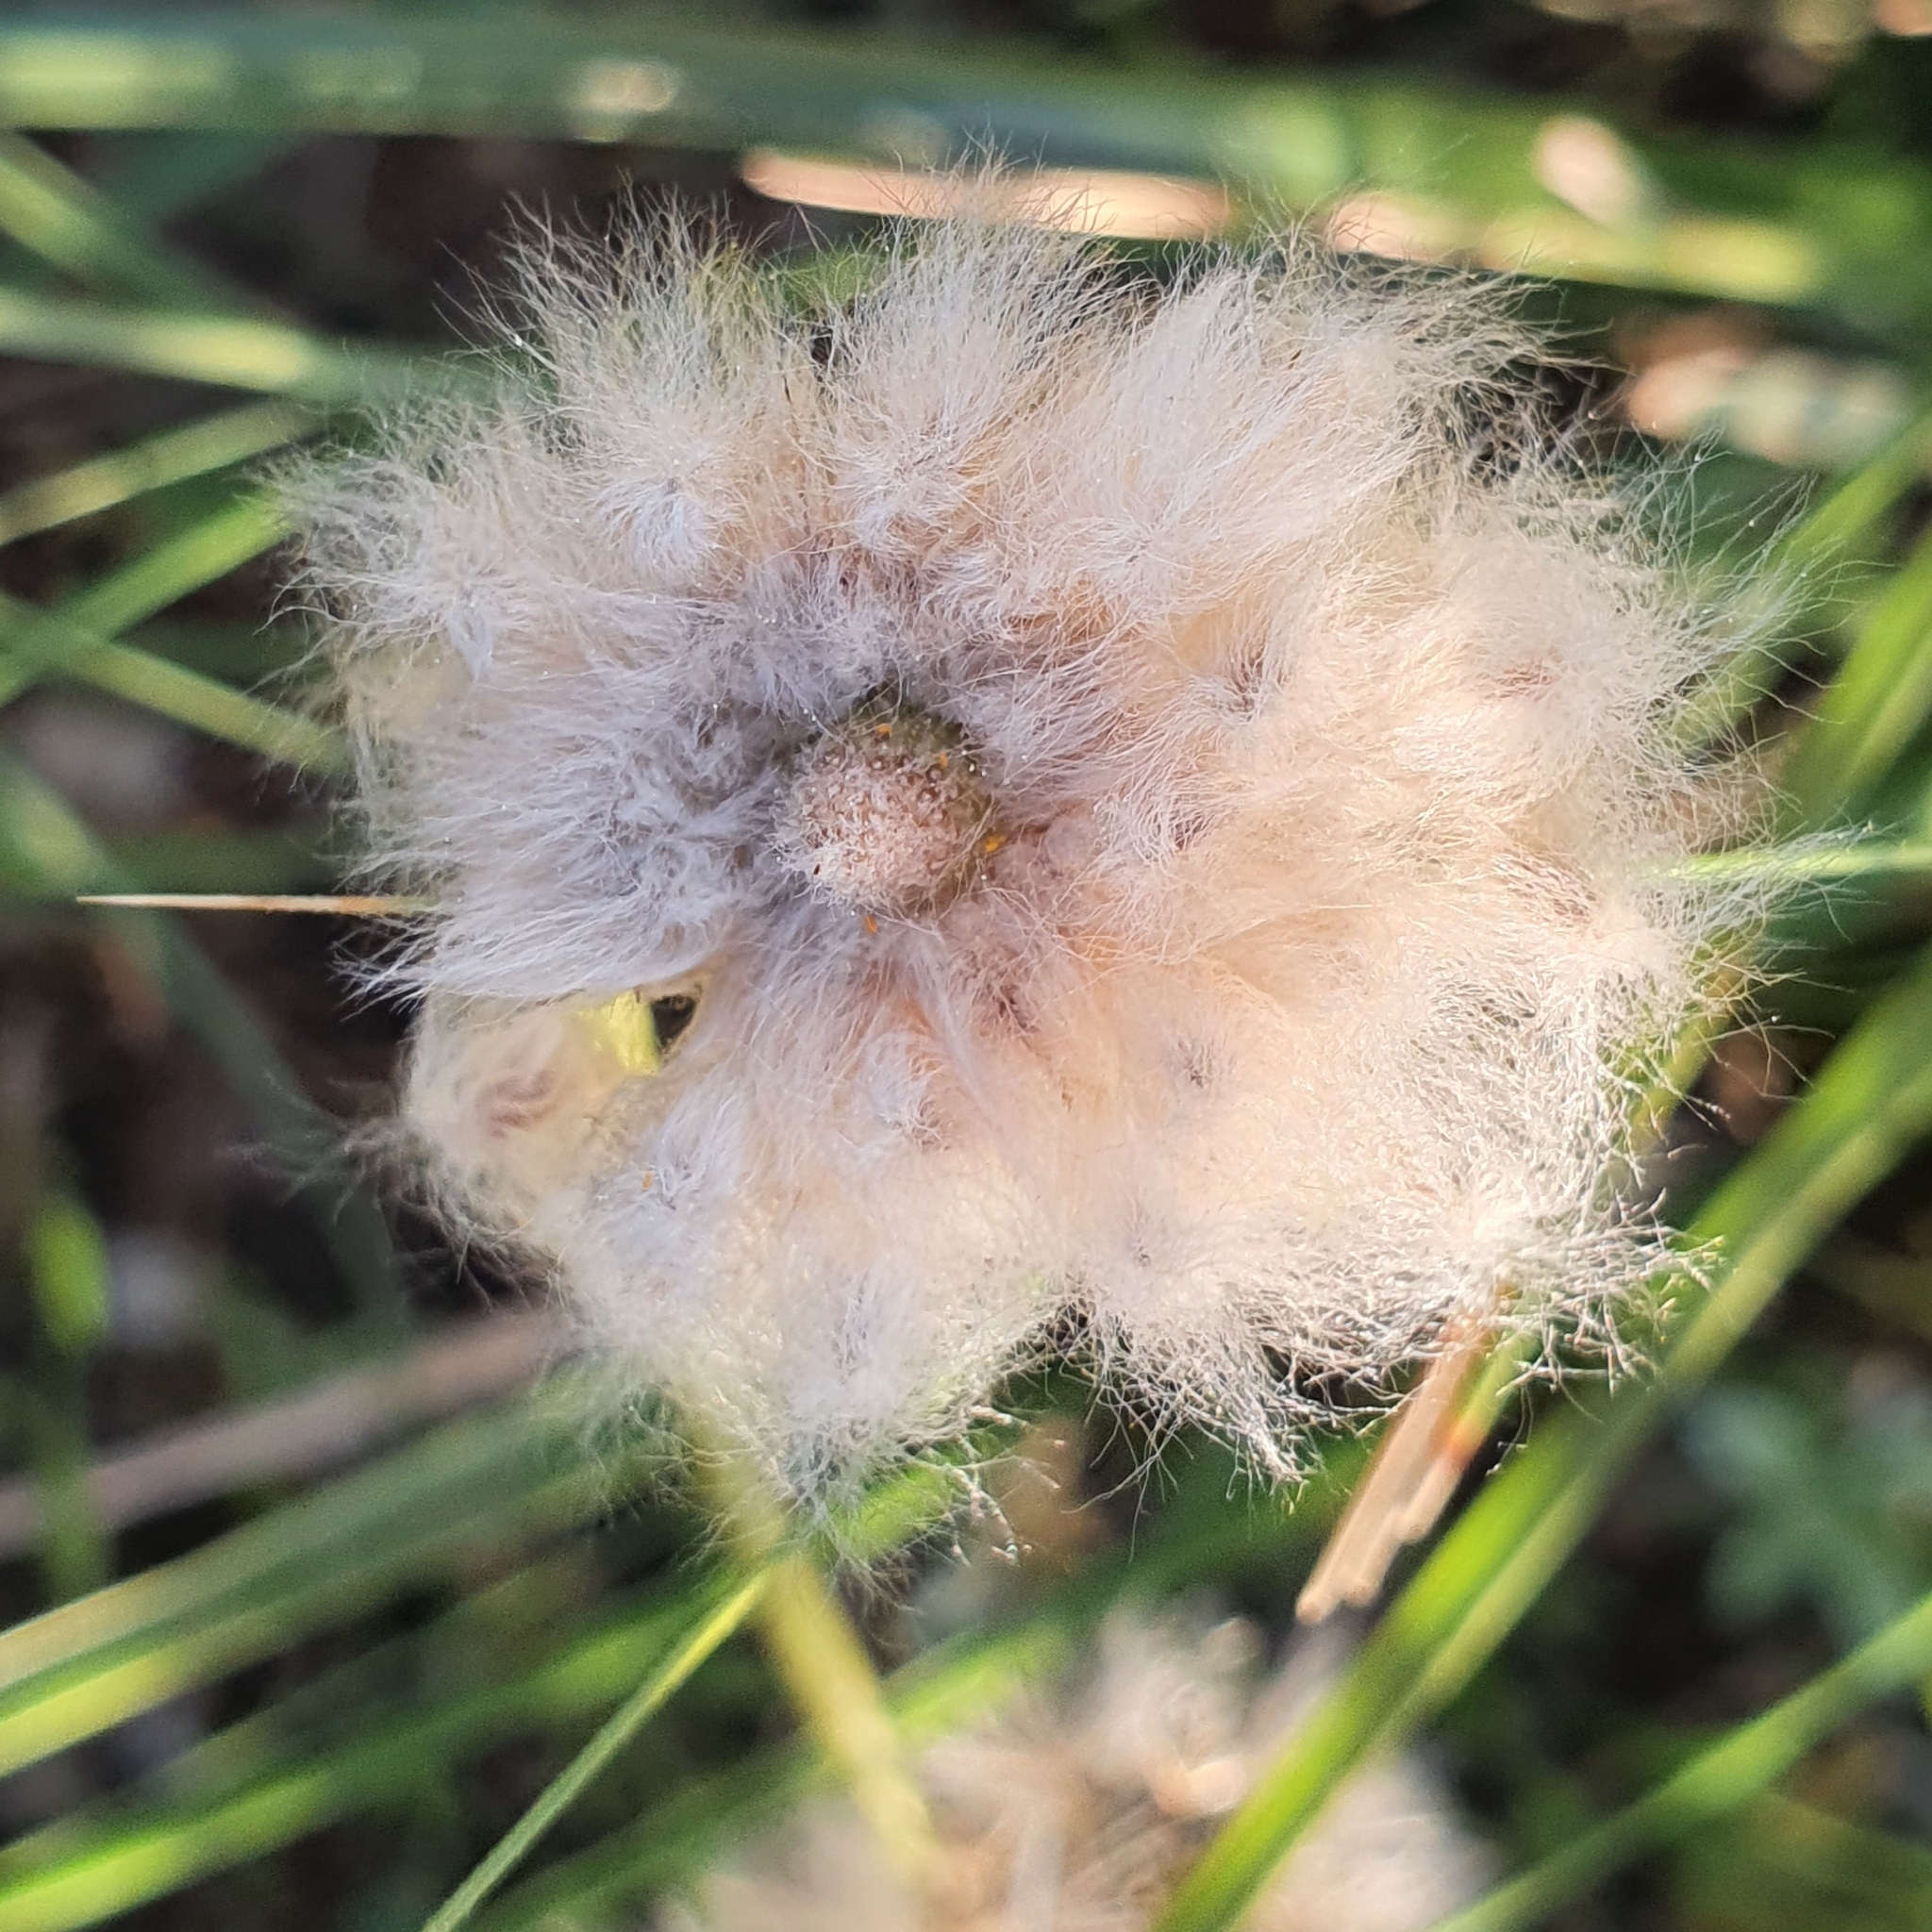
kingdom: Plantae
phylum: Tracheophyta
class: Magnoliopsida
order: Ranunculales
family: Ranunculaceae
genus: Anemone
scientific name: Anemone palmata
